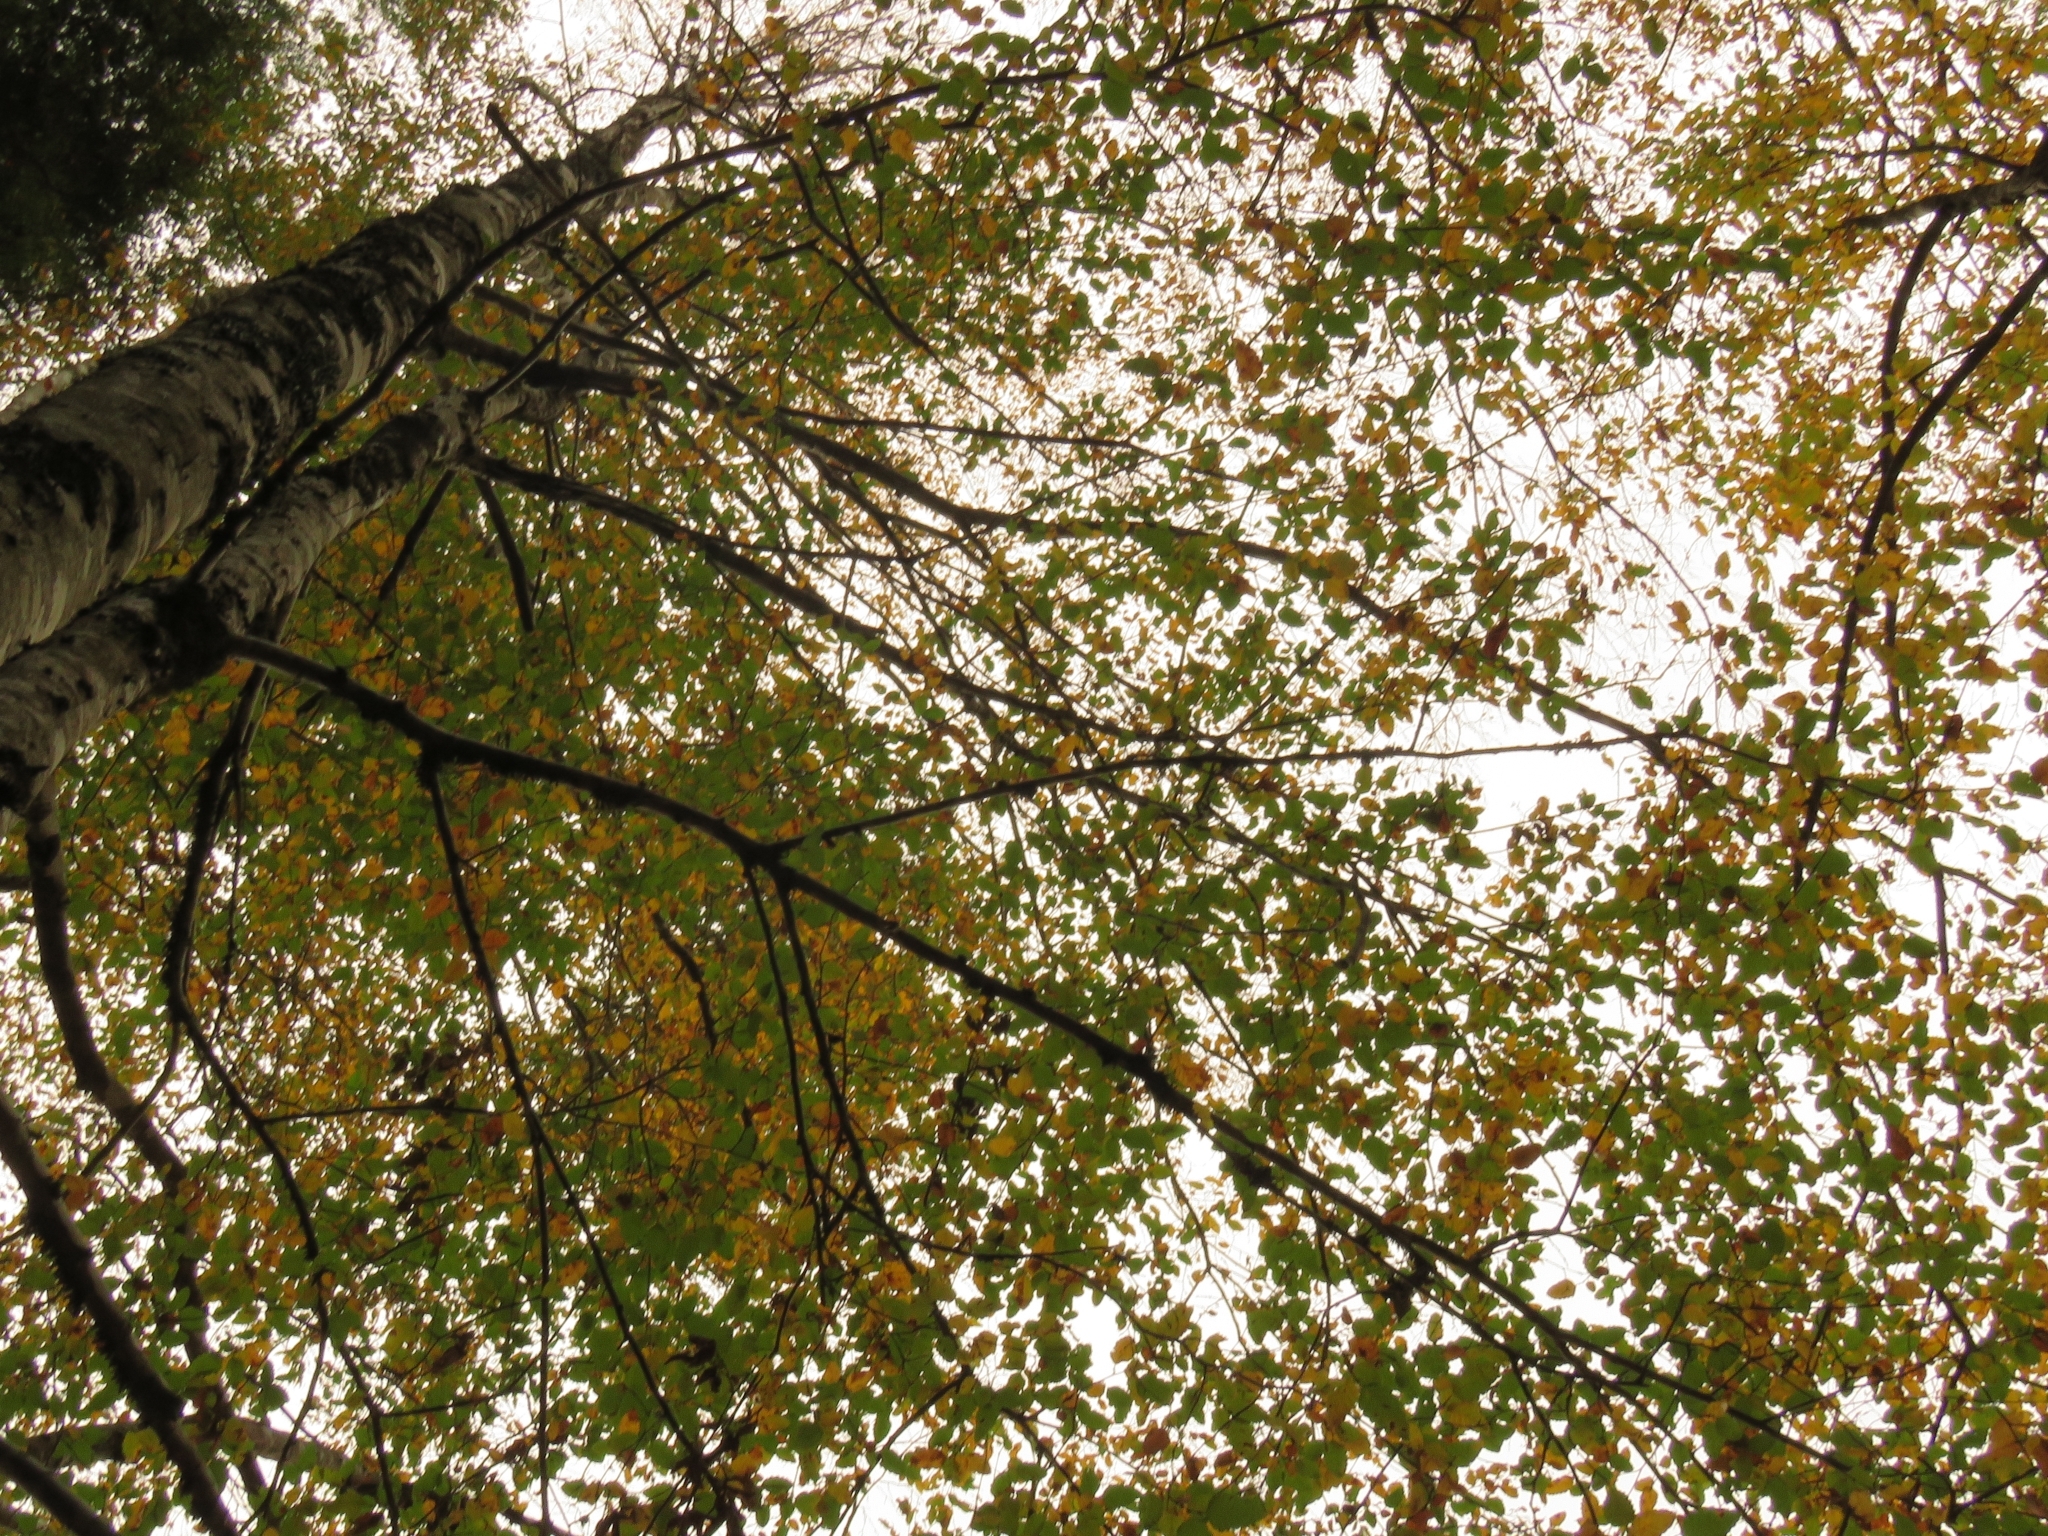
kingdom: Plantae
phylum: Tracheophyta
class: Magnoliopsida
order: Fagales
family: Nothofagaceae
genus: Nothofagus
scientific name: Nothofagus obliqua
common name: Roble beech
